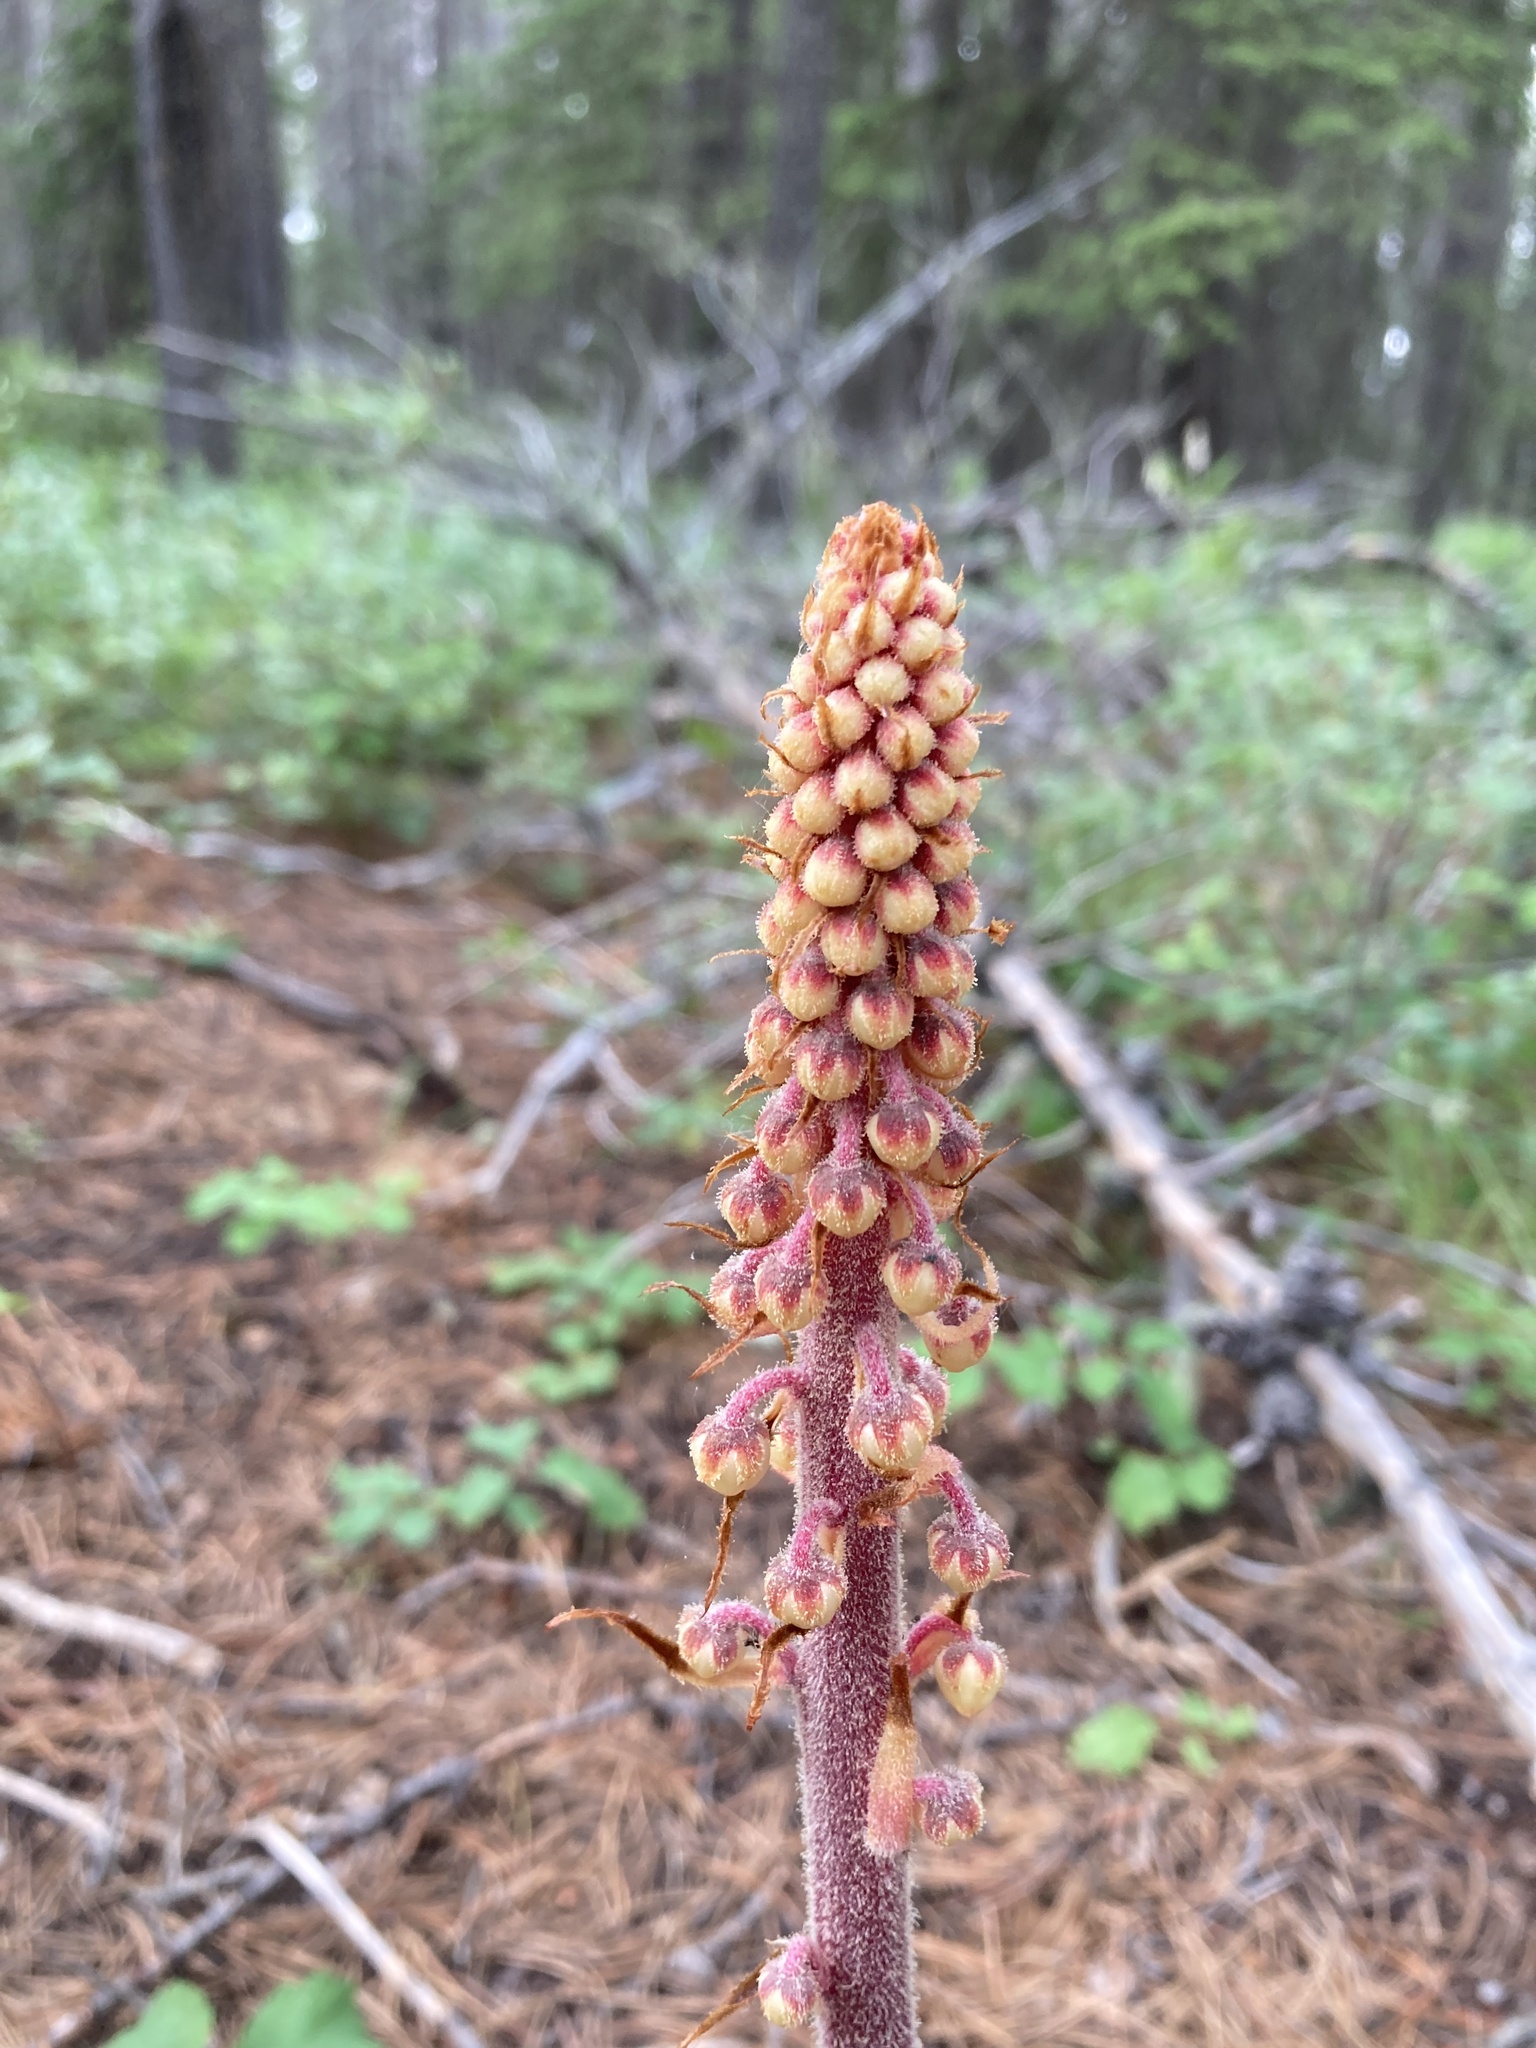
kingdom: Plantae
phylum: Tracheophyta
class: Magnoliopsida
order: Ericales
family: Ericaceae
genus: Pterospora
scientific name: Pterospora andromedea
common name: Giant bird's-nest
